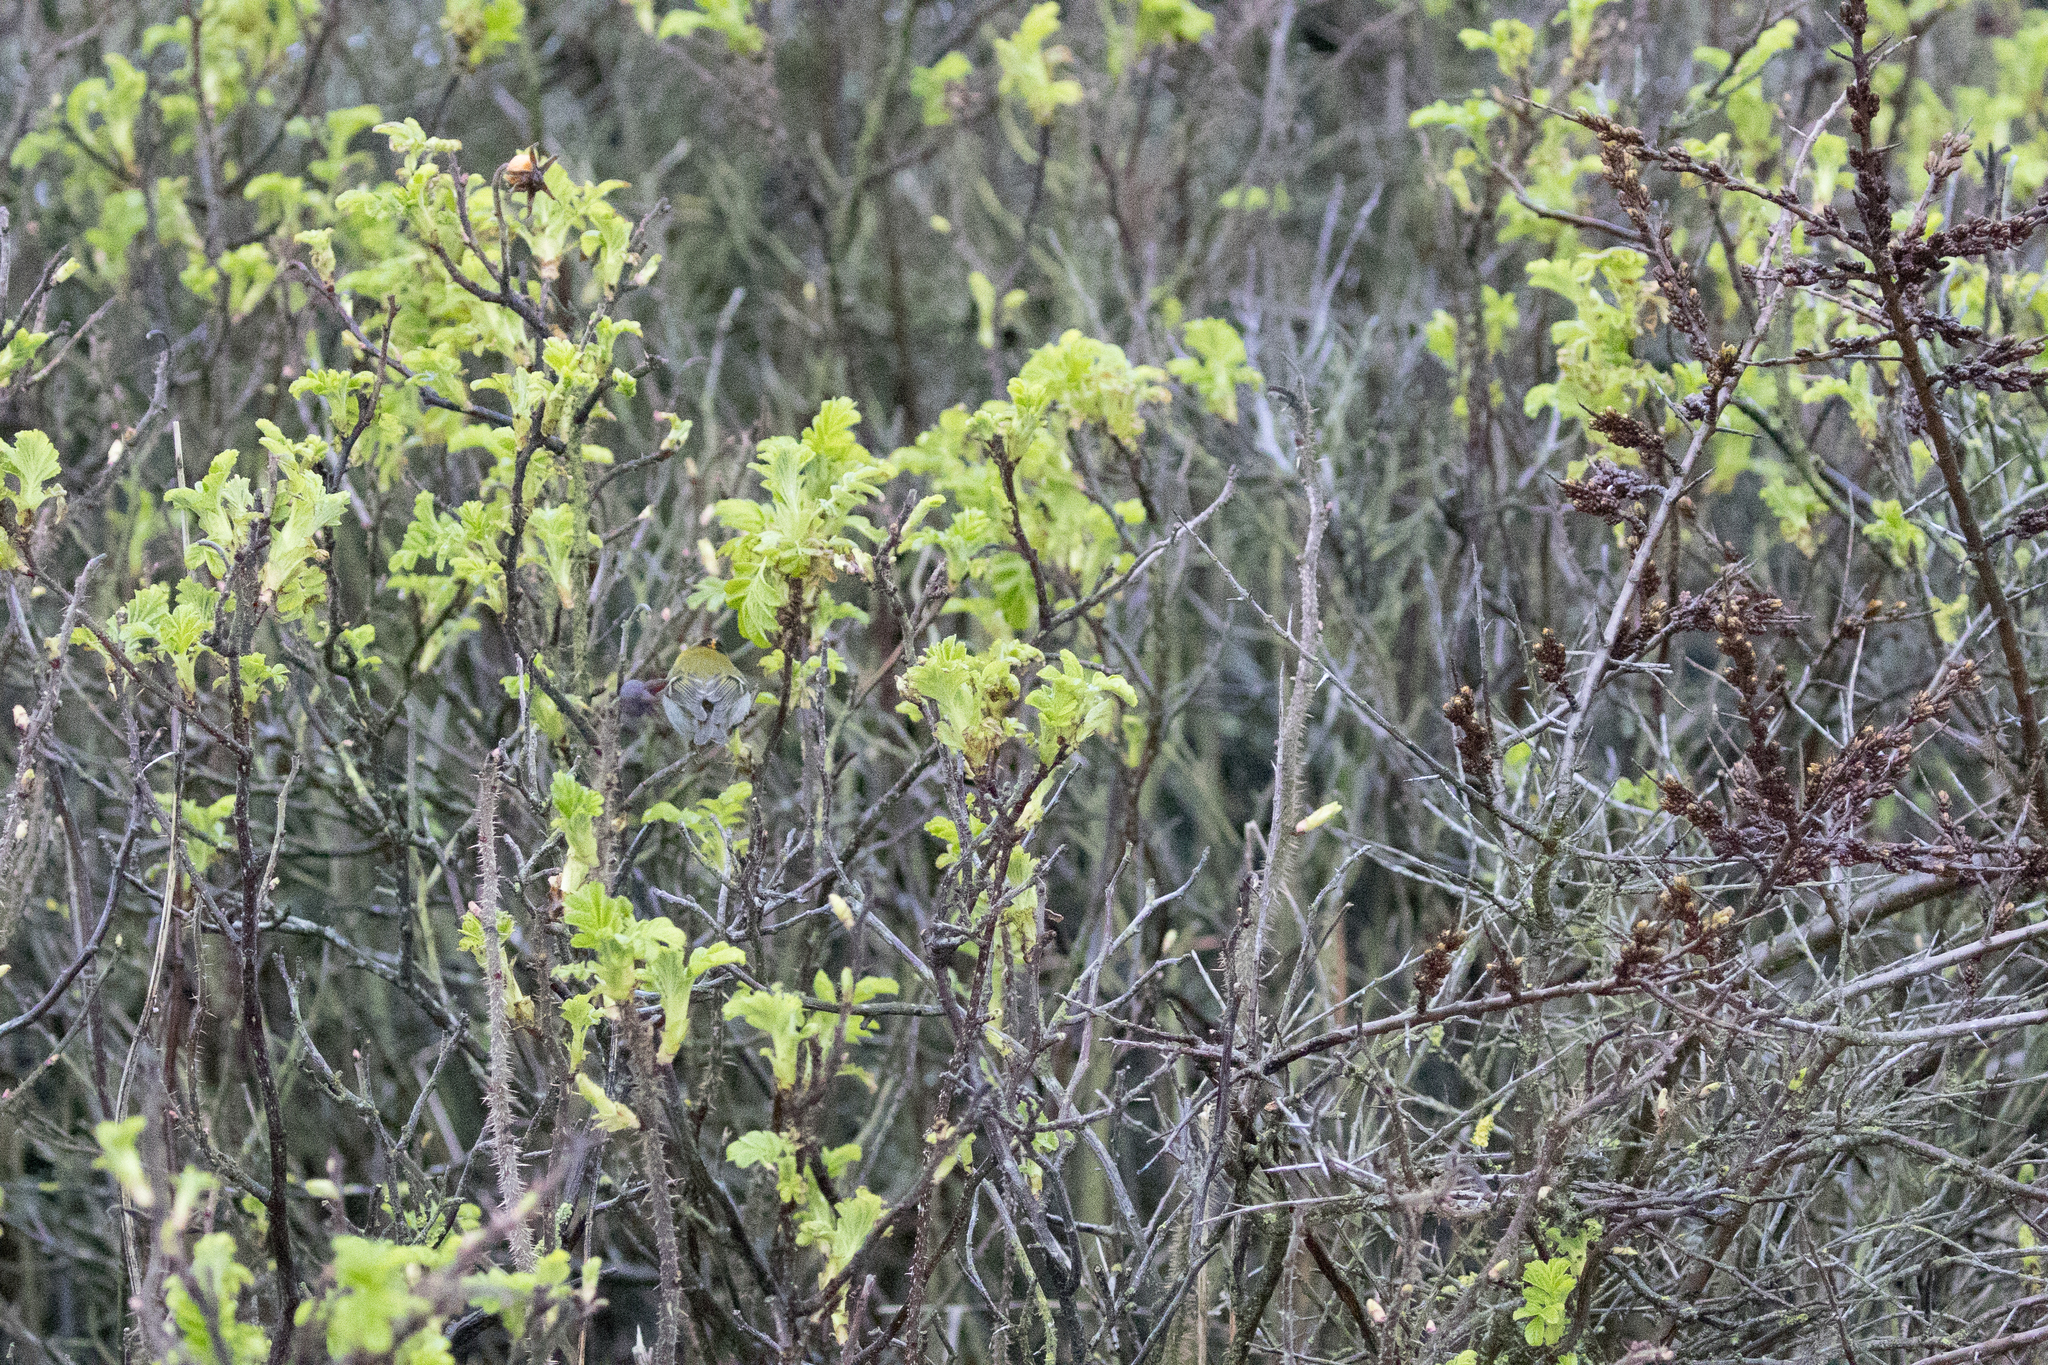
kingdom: Animalia
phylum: Chordata
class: Aves
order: Passeriformes
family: Regulidae
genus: Regulus
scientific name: Regulus ignicapilla
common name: Firecrest
